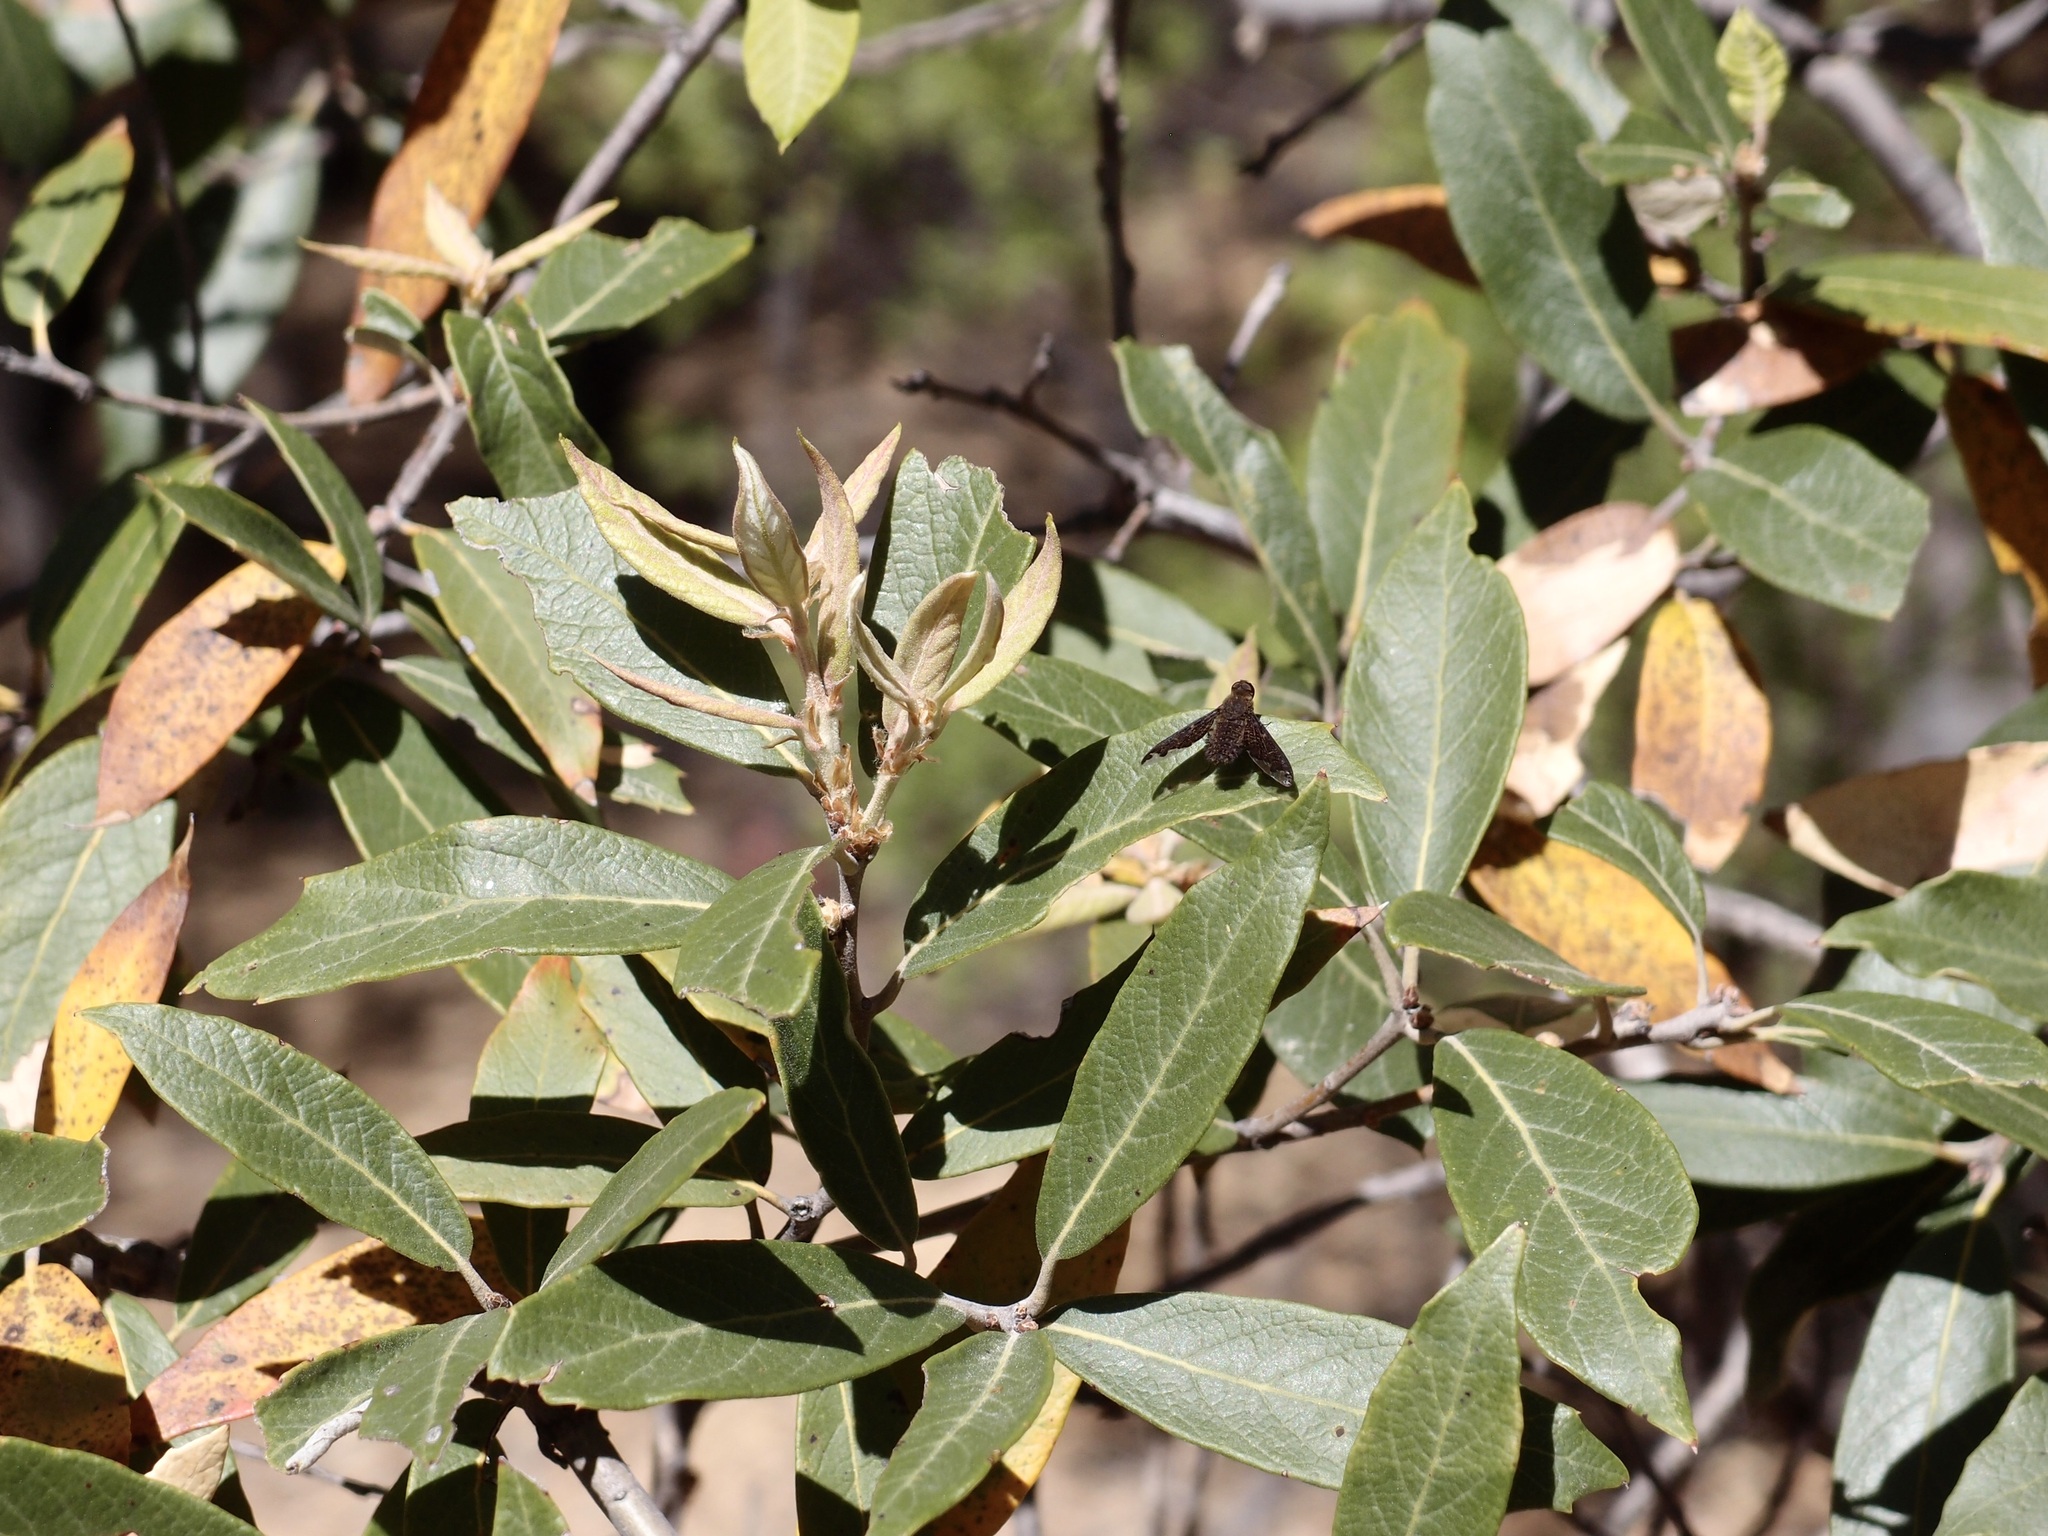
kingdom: Plantae
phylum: Tracheophyta
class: Magnoliopsida
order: Fagales
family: Fagaceae
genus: Quercus
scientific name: Quercus hypoleucoides
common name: Silverleaf oak
